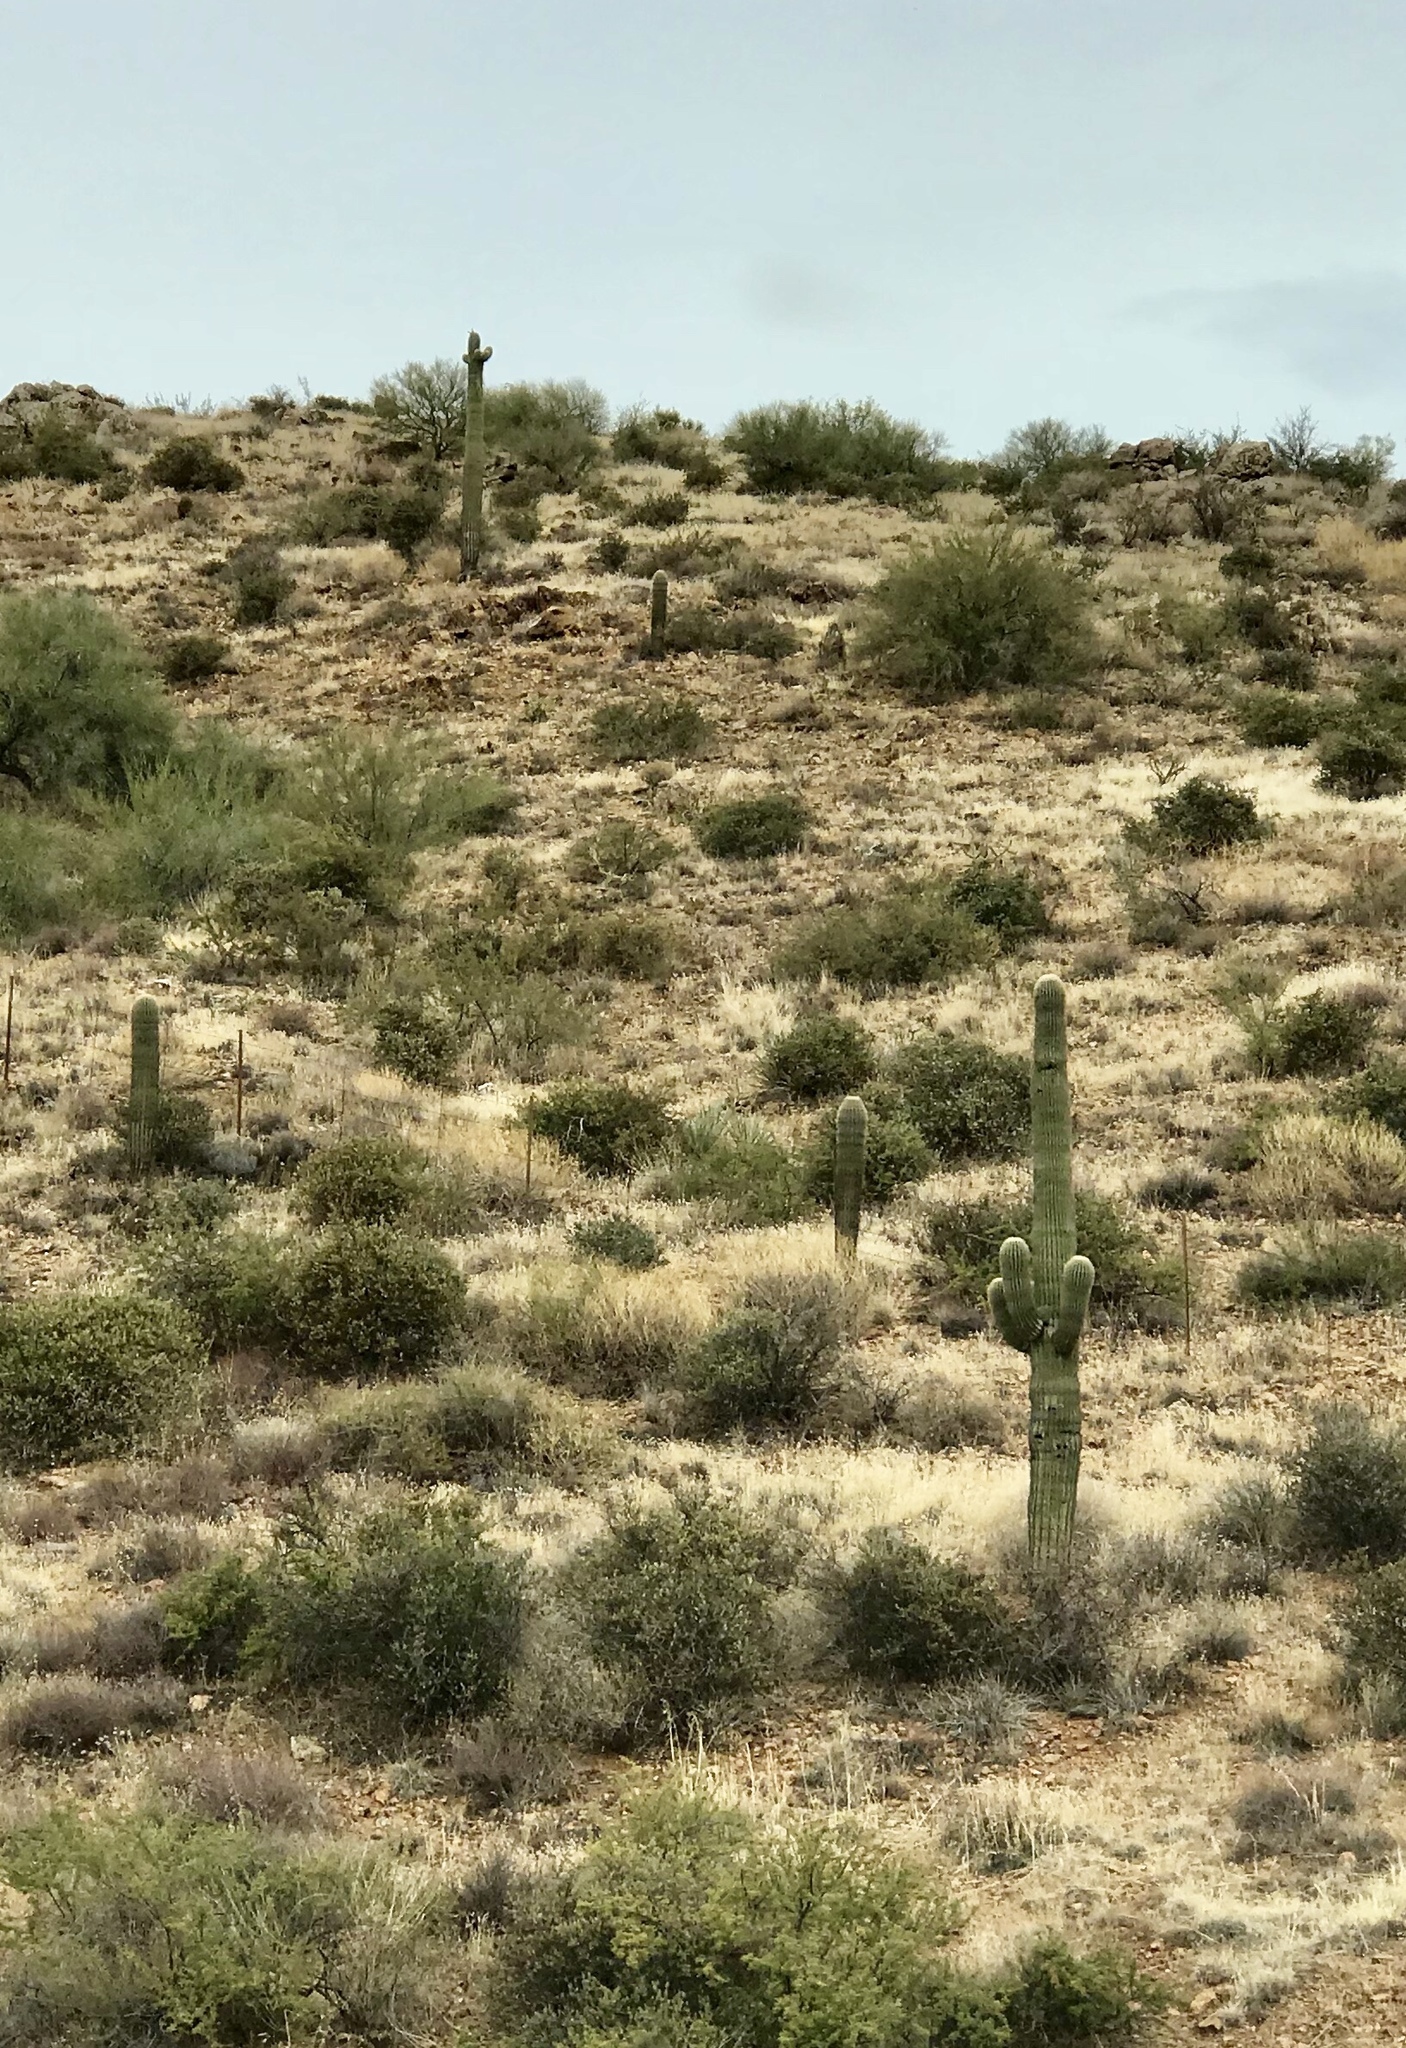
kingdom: Plantae
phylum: Tracheophyta
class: Magnoliopsida
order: Caryophyllales
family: Cactaceae
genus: Carnegiea
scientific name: Carnegiea gigantea
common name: Saguaro
